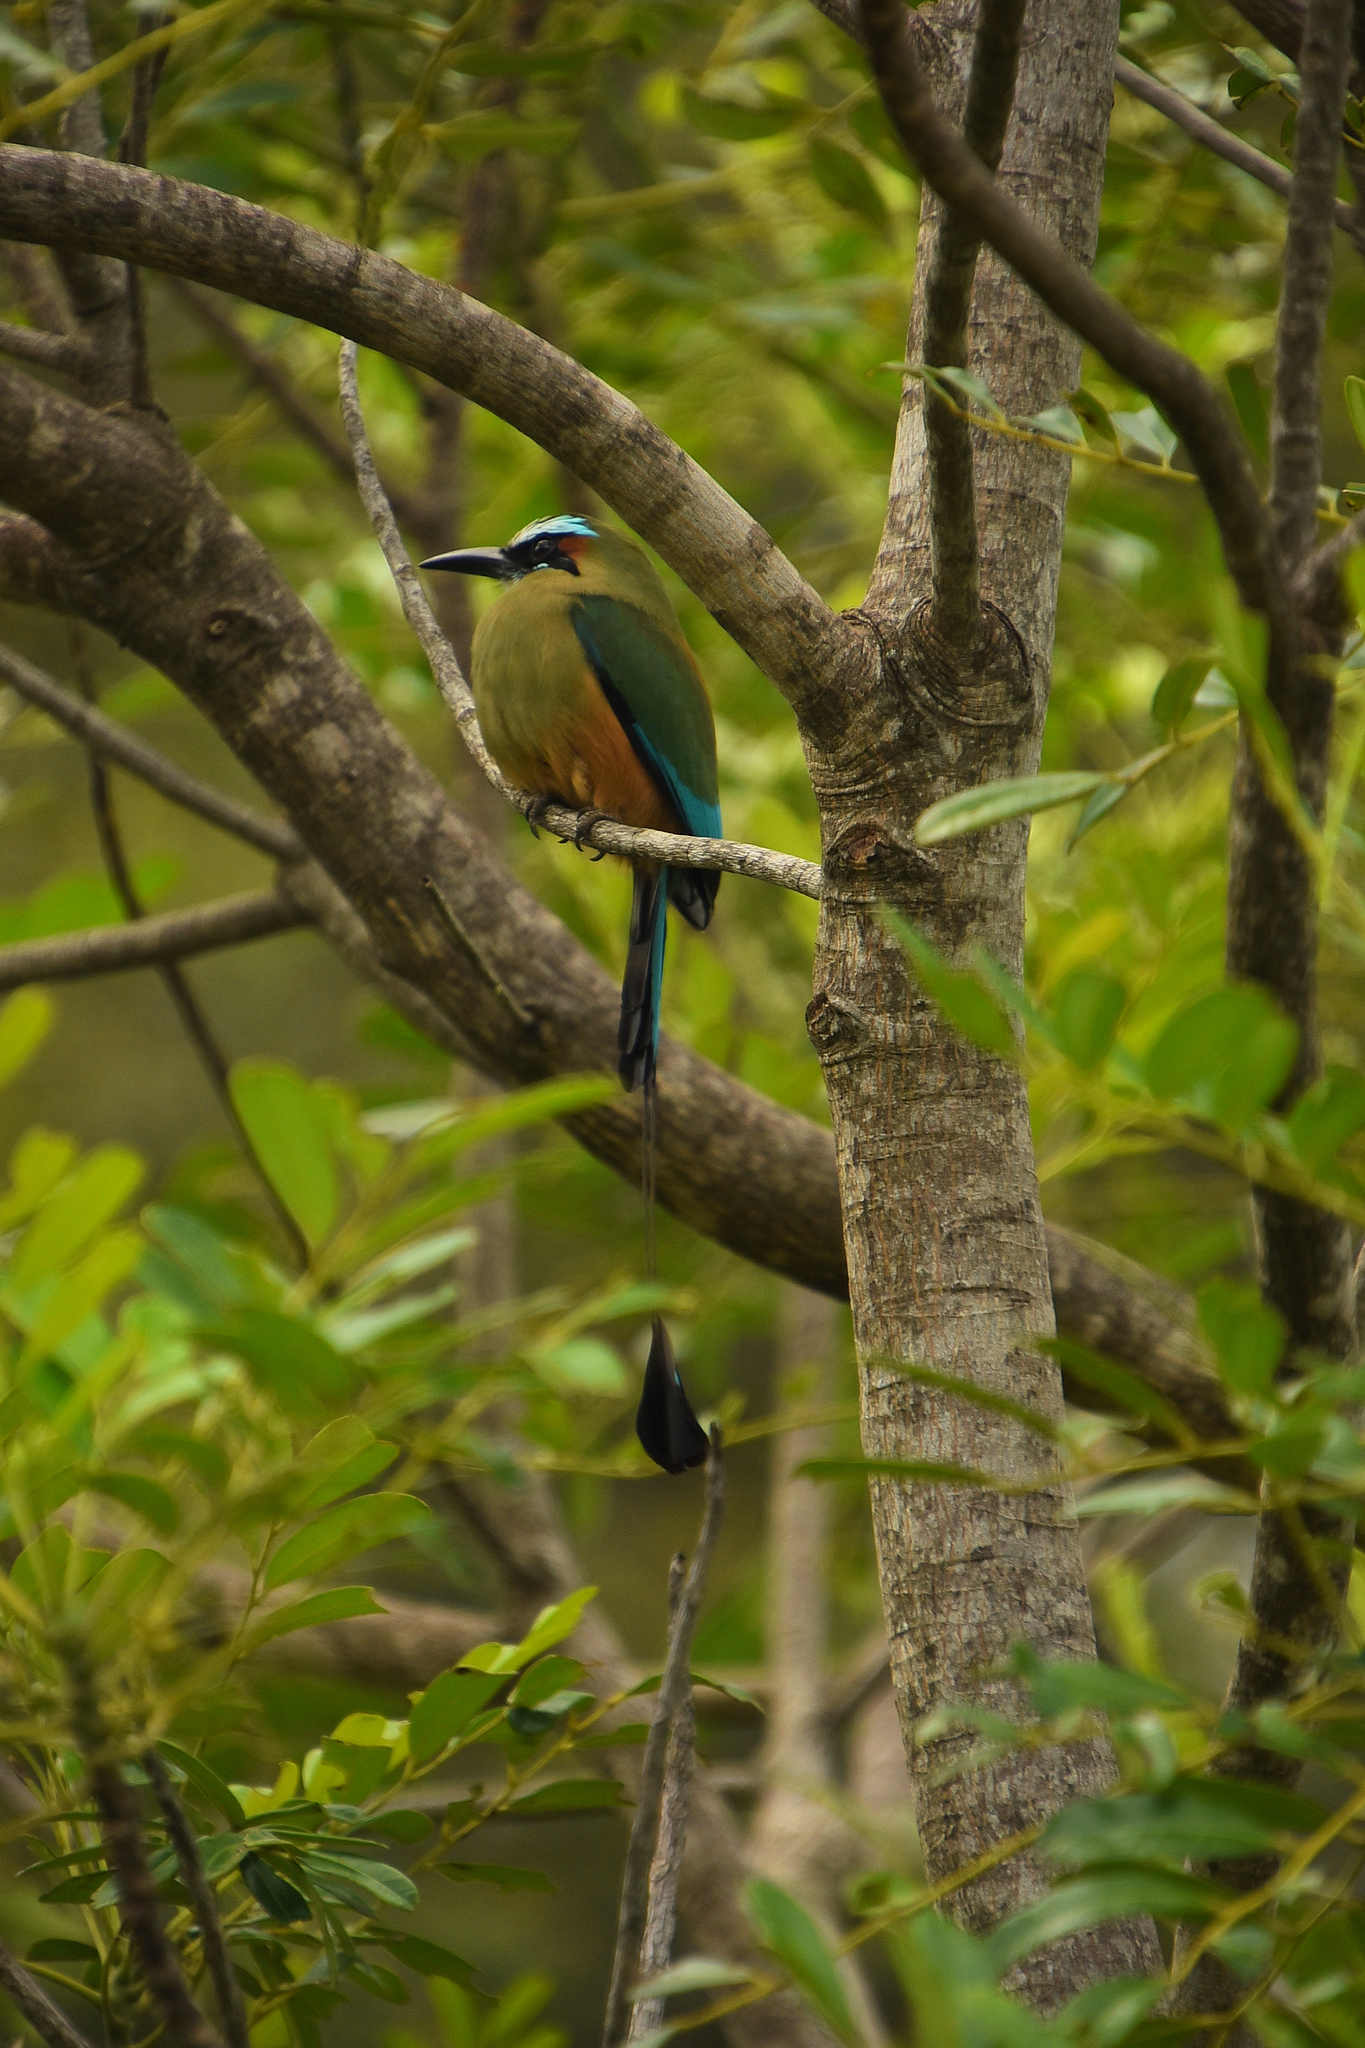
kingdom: Animalia
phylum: Chordata
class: Aves
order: Coraciiformes
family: Momotidae
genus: Eumomota
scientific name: Eumomota superciliosa
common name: Turquoise-browed motmot
